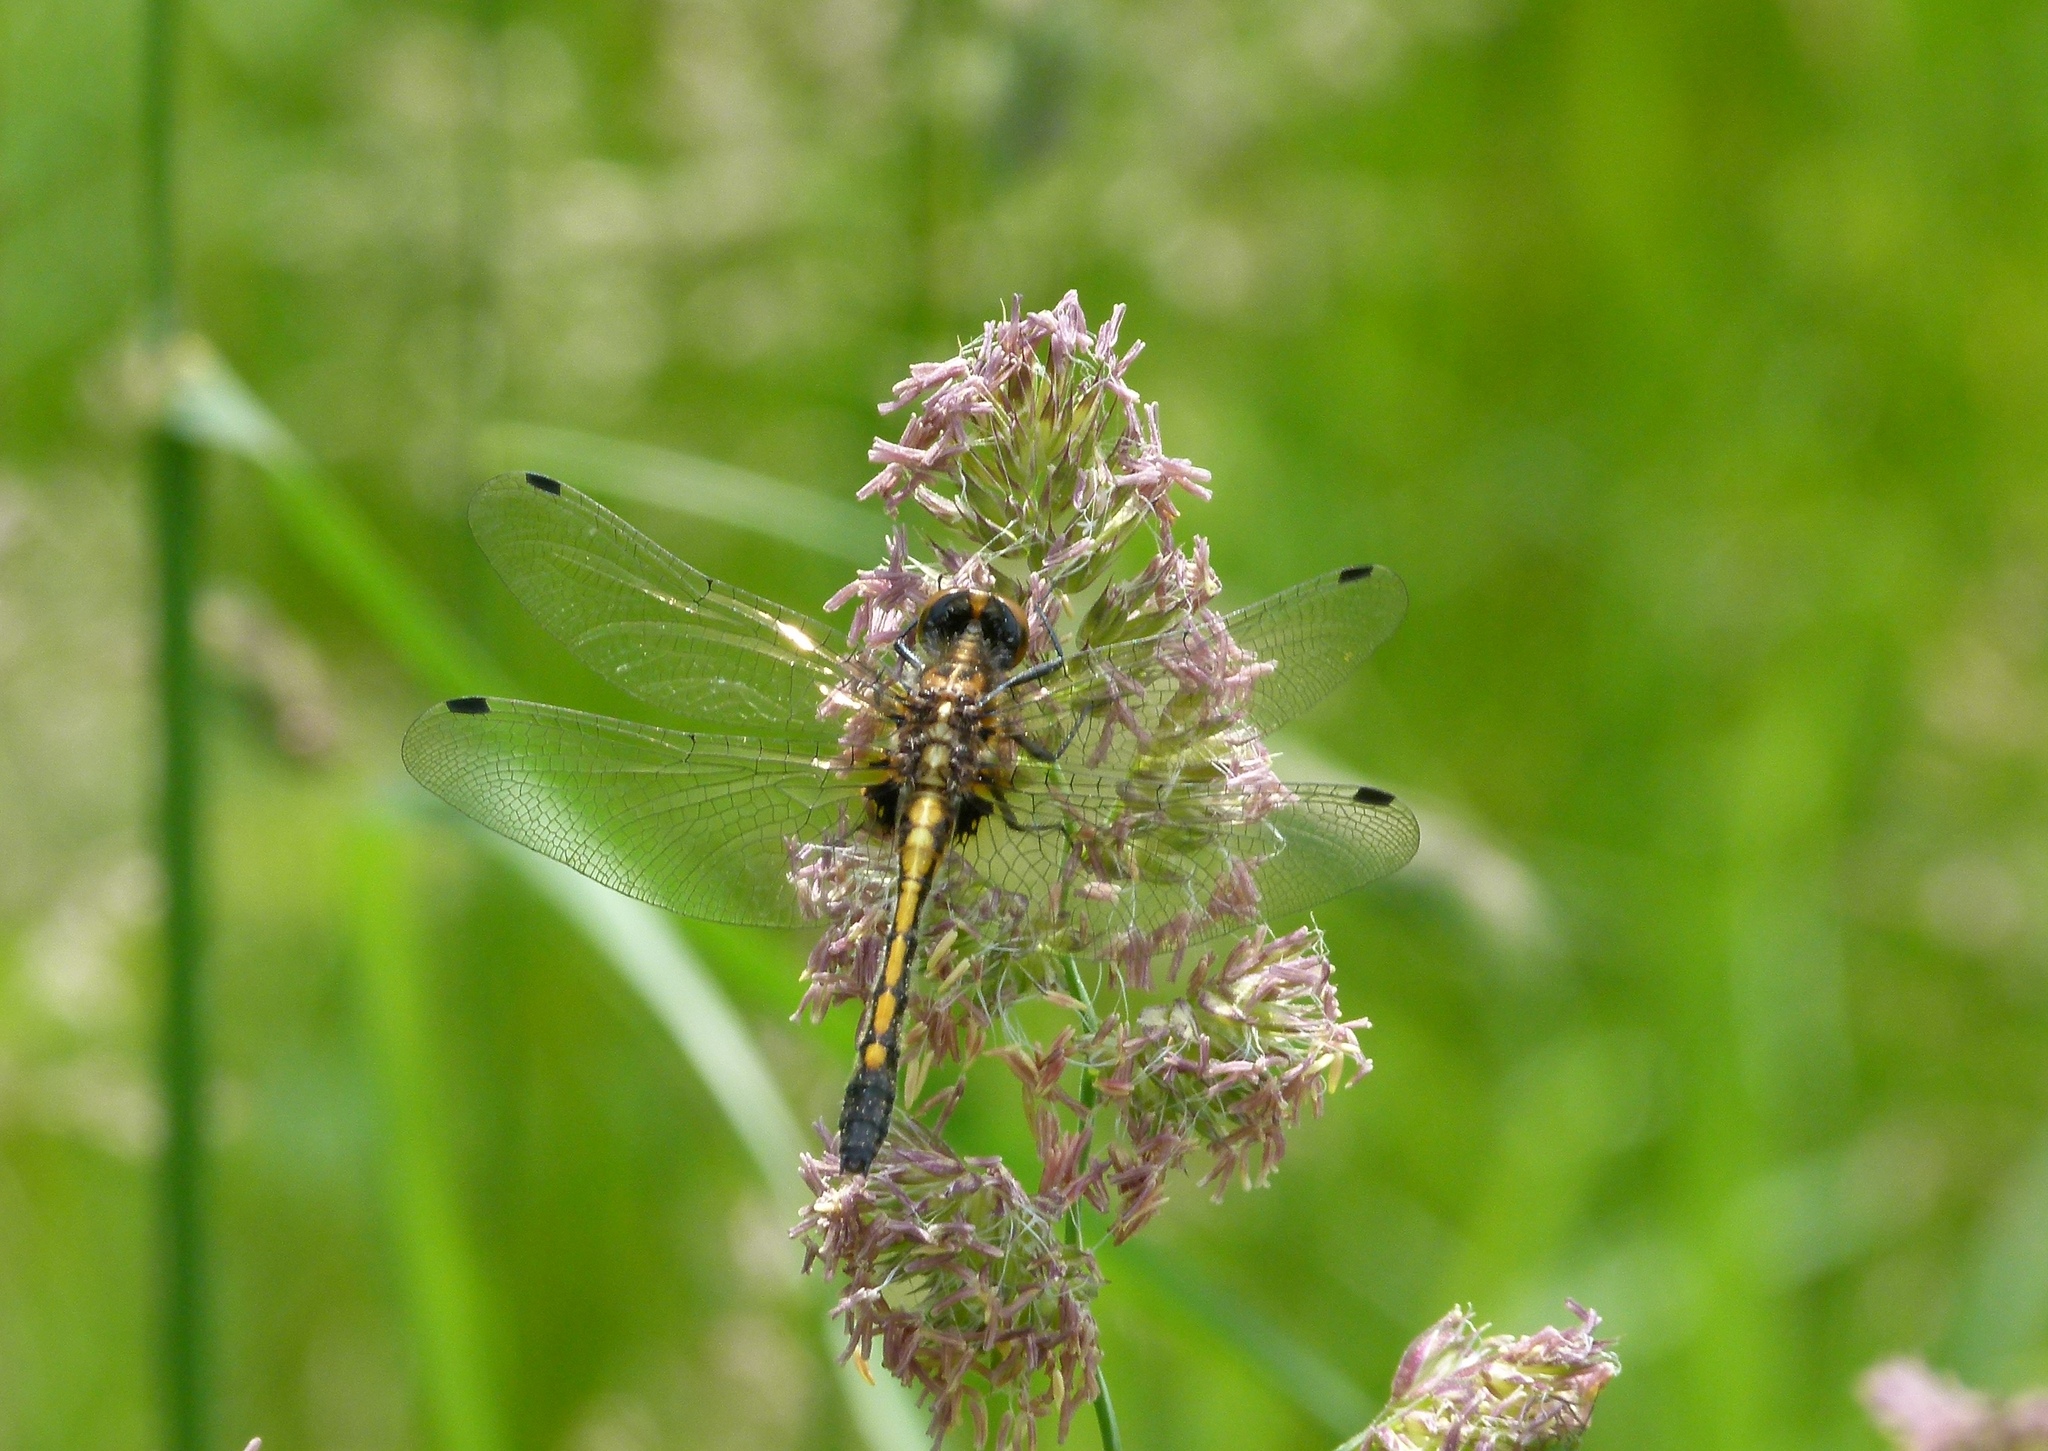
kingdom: Animalia
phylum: Arthropoda
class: Insecta
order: Odonata
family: Libellulidae
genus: Leucorrhinia
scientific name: Leucorrhinia intacta
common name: Dot-tailed whiteface
